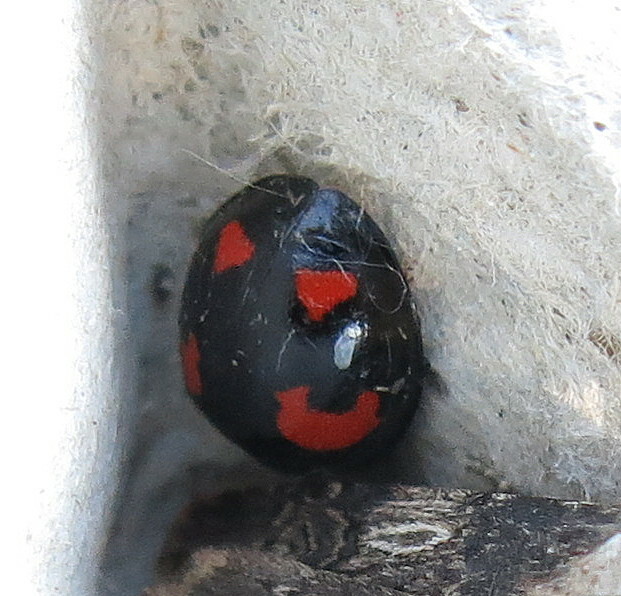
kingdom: Animalia
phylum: Arthropoda
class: Insecta
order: Coleoptera
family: Coccinellidae
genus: Harmonia
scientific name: Harmonia axyridis
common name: Harlequin ladybird
